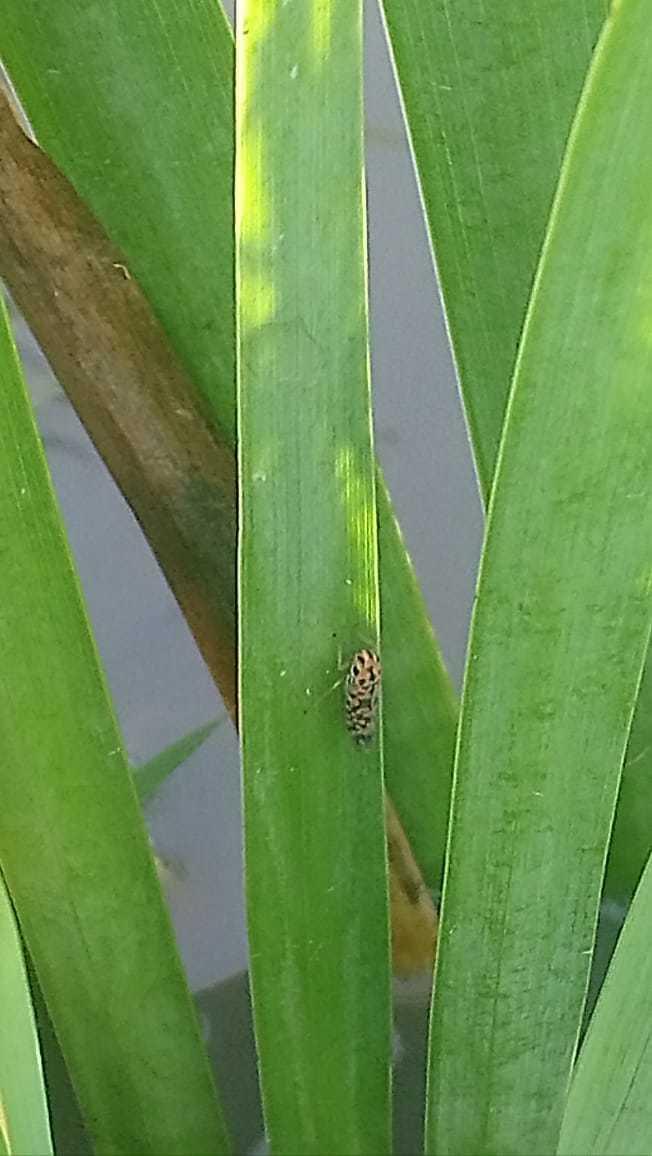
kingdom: Animalia
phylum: Arthropoda
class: Insecta
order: Hemiptera
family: Cicadellidae
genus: Pawiloma
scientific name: Pawiloma victima
